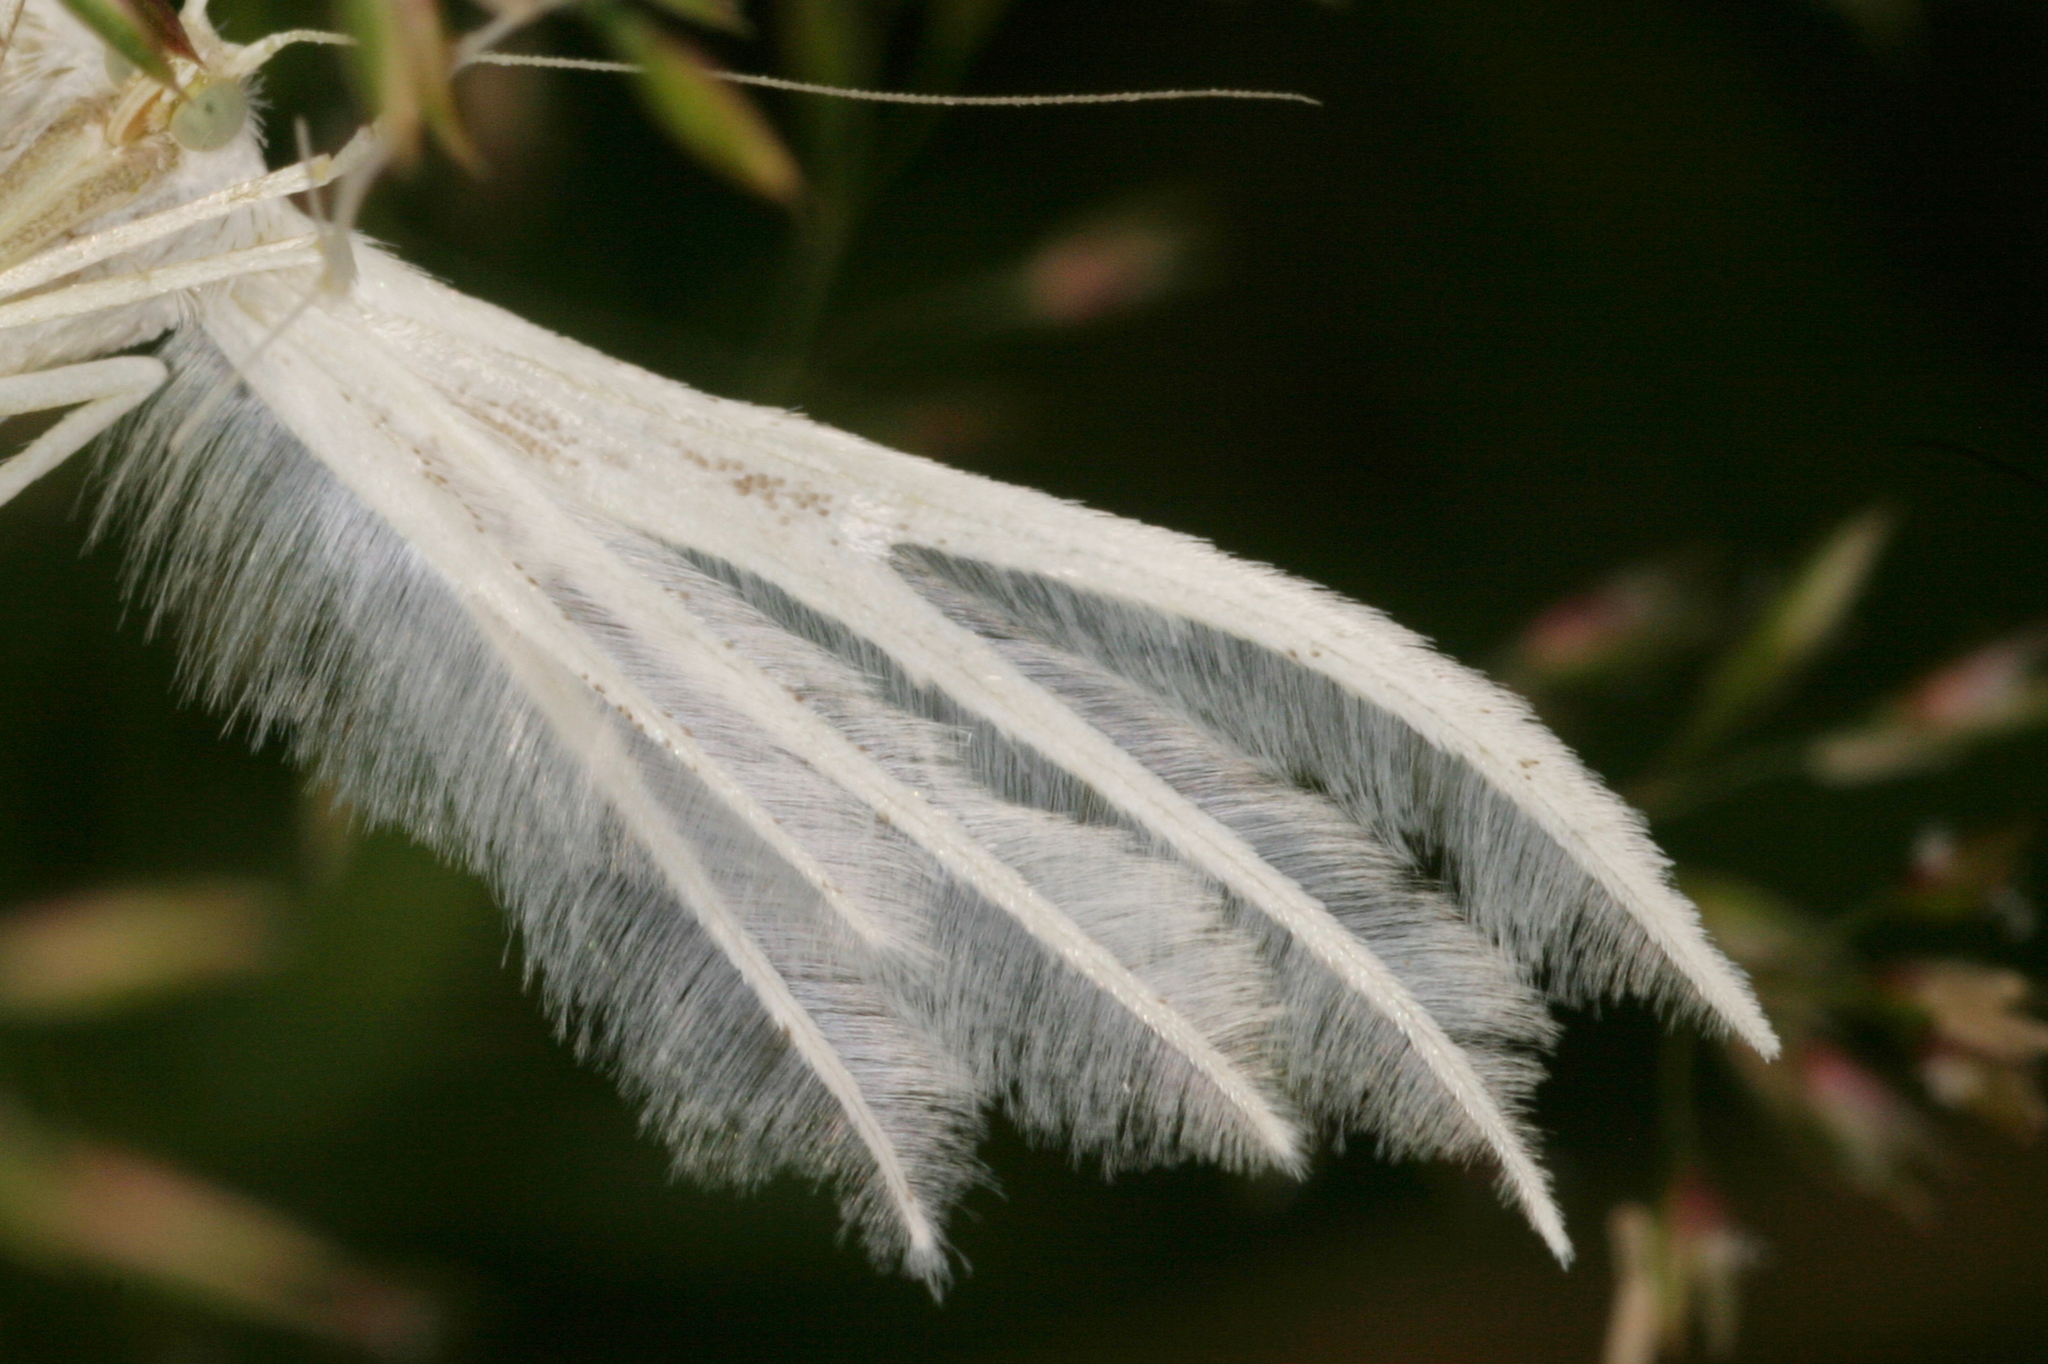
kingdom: Animalia
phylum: Arthropoda
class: Insecta
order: Lepidoptera
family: Pterophoridae
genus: Pterophorus
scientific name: Pterophorus pentadactyla
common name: White plume moth
